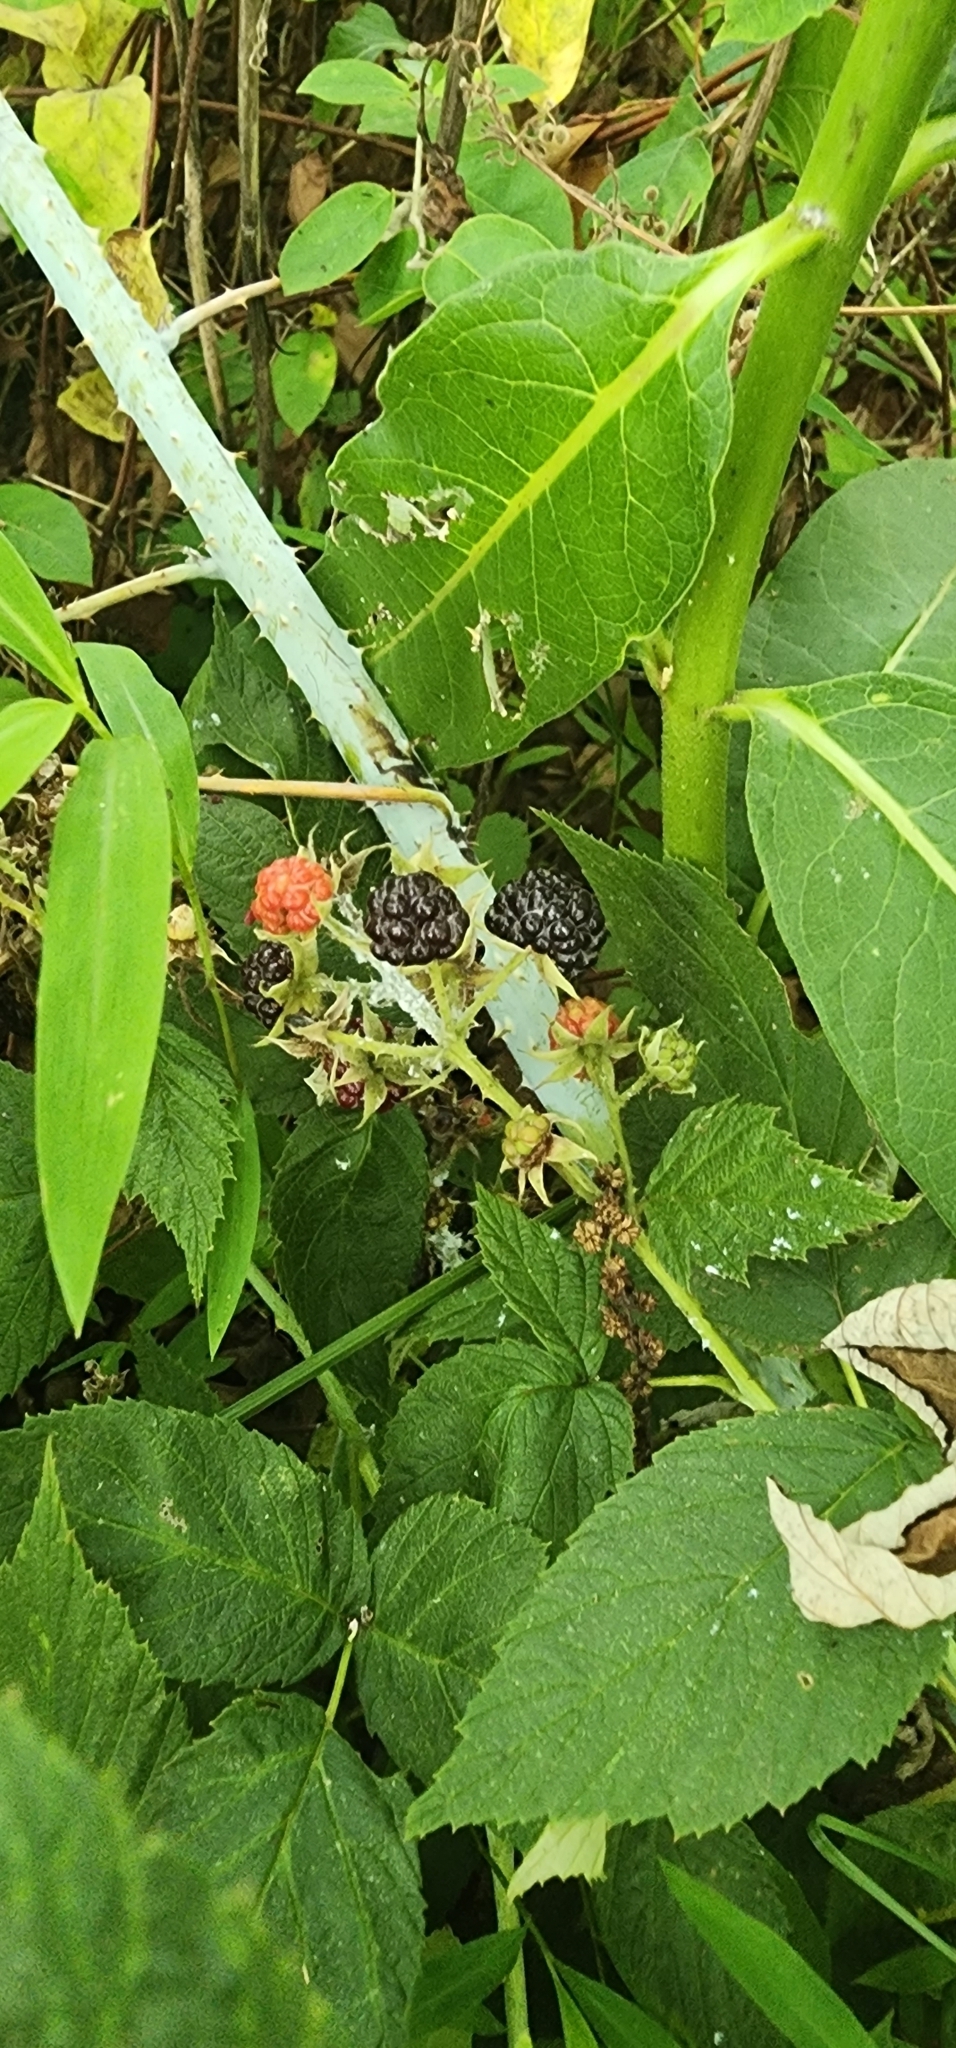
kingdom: Plantae
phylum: Tracheophyta
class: Magnoliopsida
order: Rosales
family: Rosaceae
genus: Rubus
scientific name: Rubus occidentalis
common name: Black raspberry
